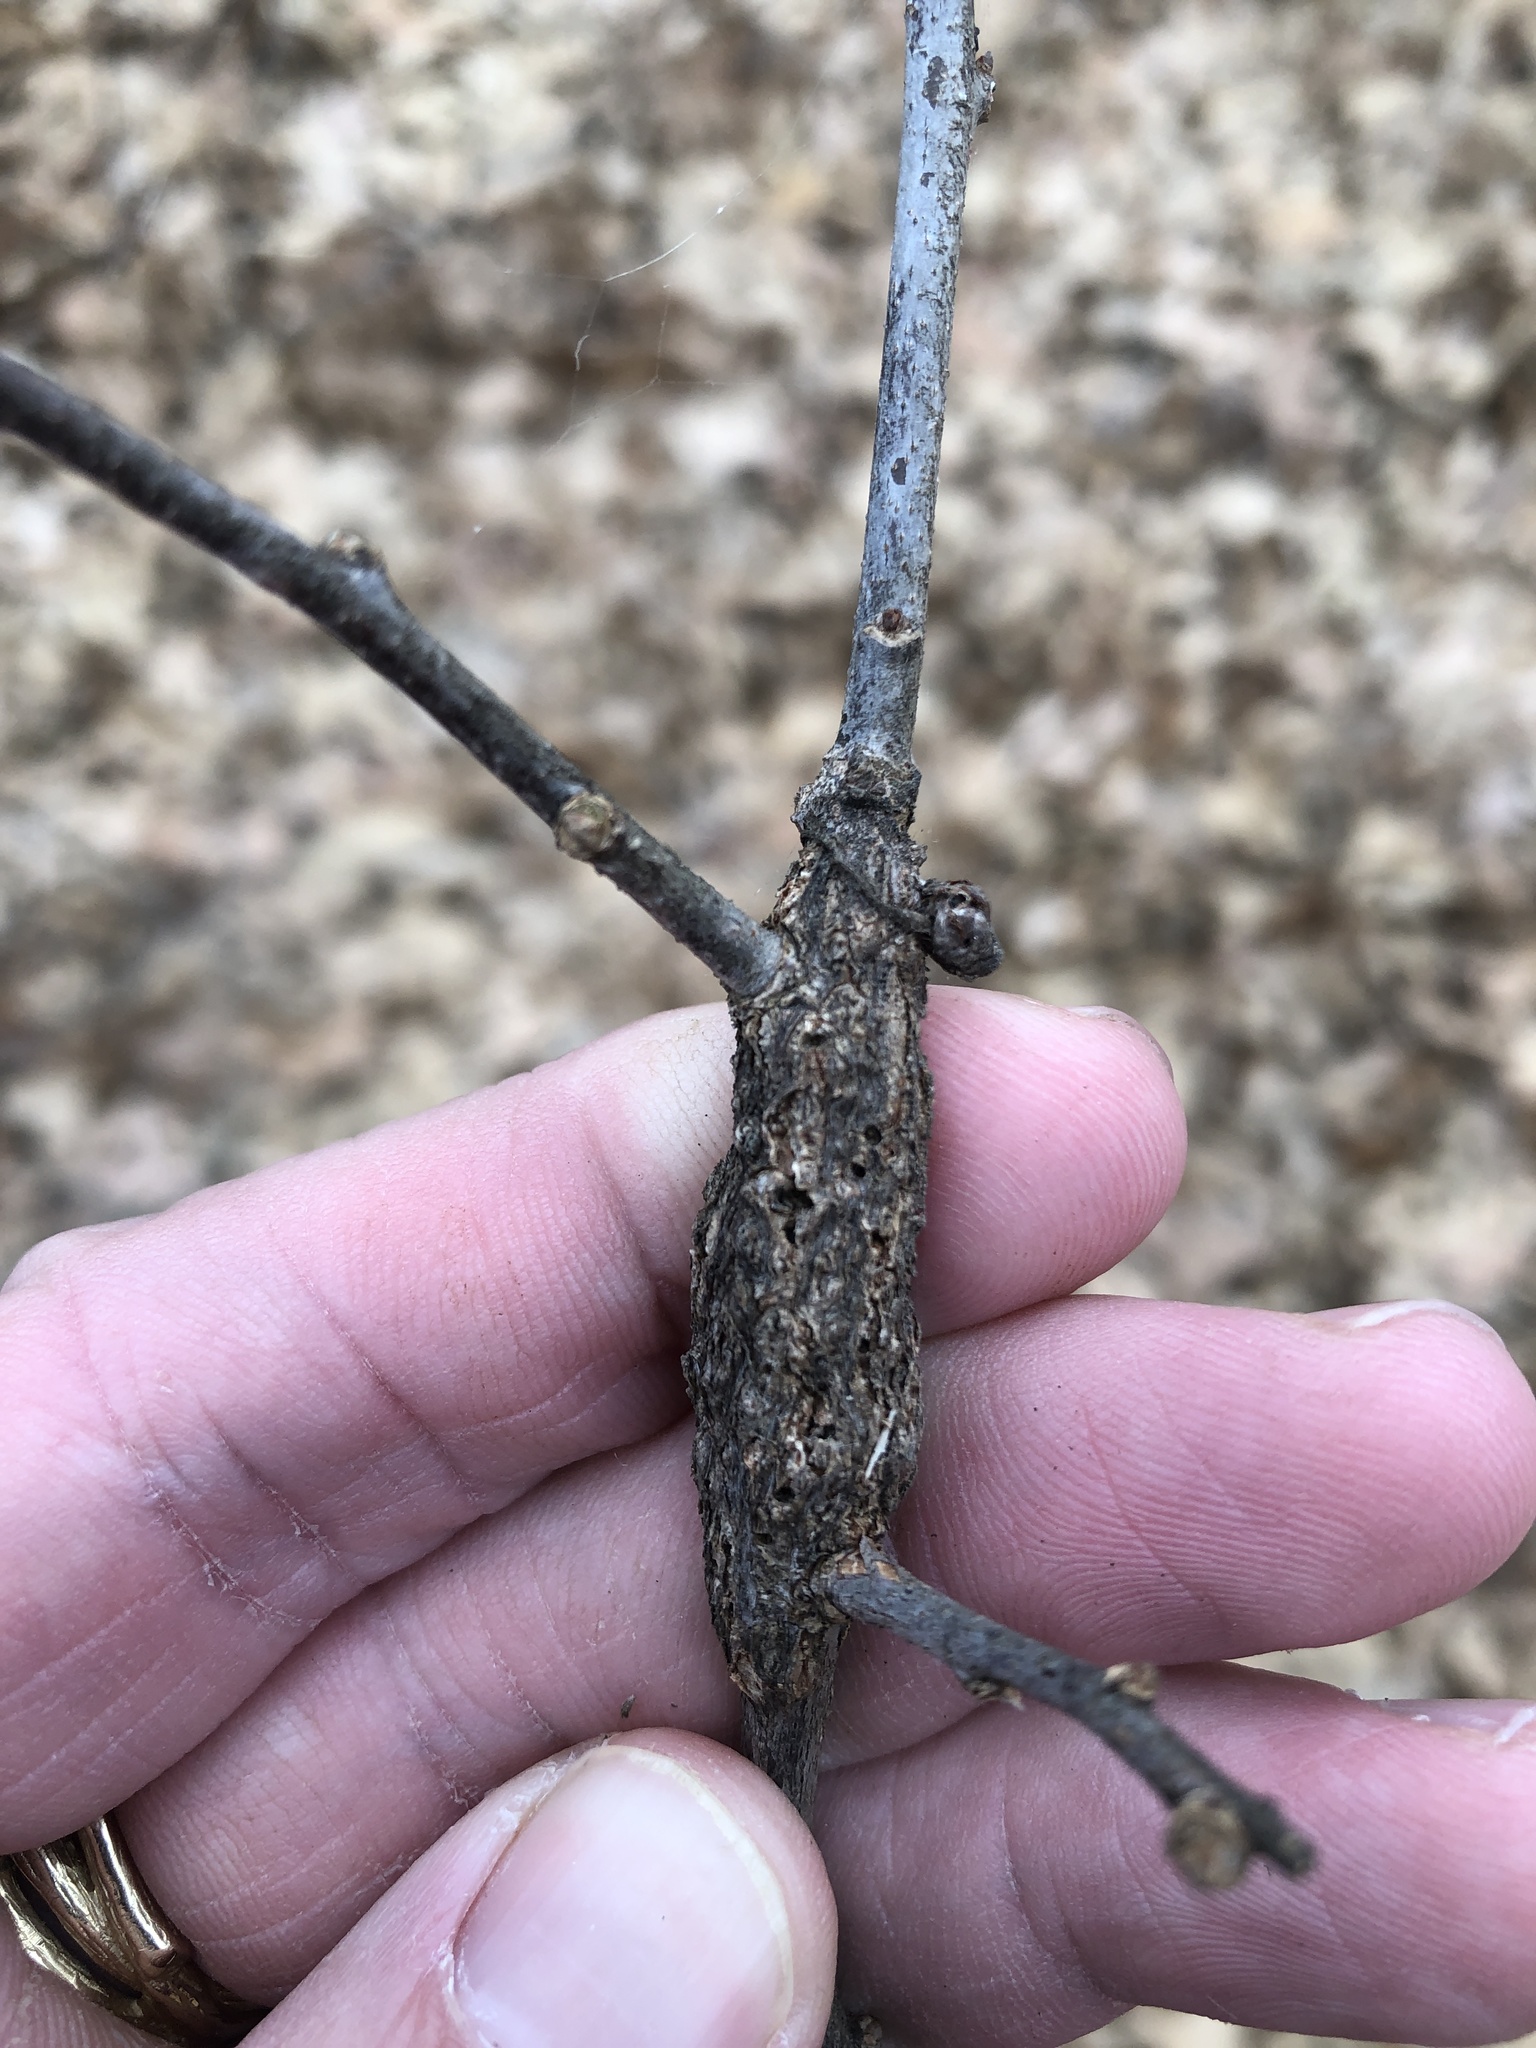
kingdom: Animalia
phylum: Arthropoda
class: Insecta
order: Diptera
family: Cecidomyiidae
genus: Bruggmanniella
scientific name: Bruggmanniella bumeliae
